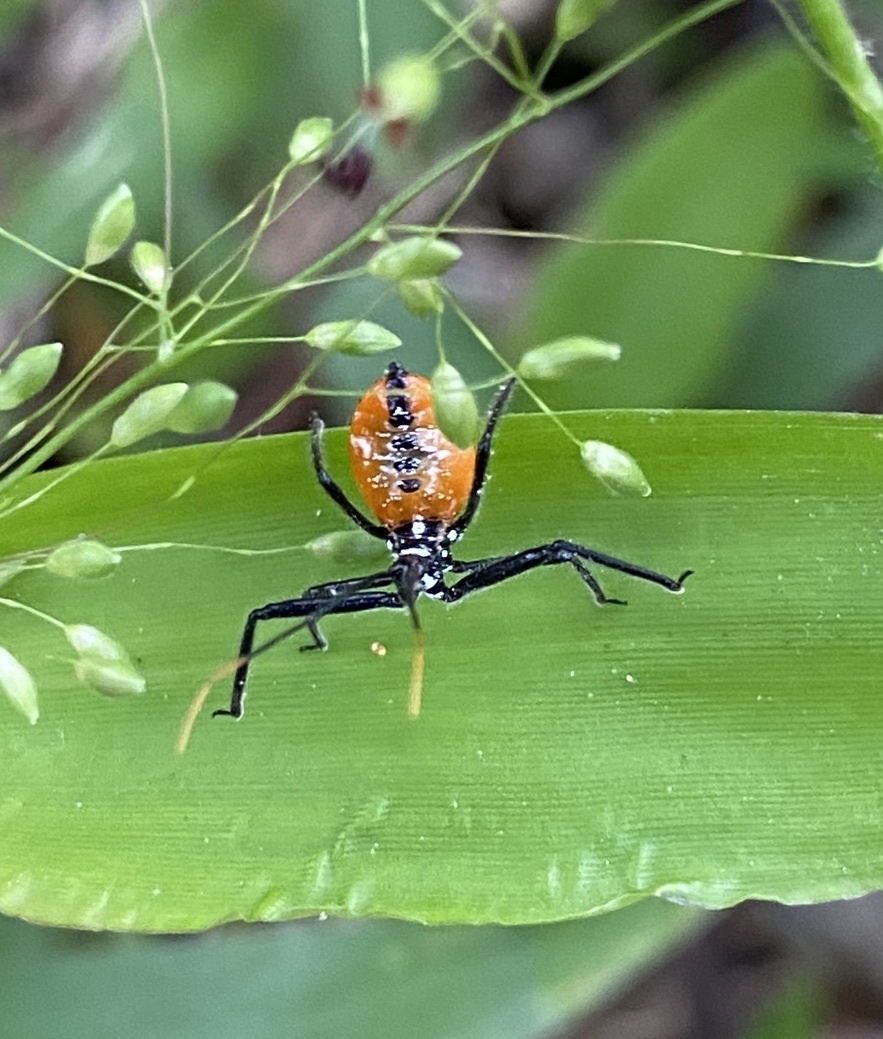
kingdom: Animalia
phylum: Arthropoda
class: Insecta
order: Hemiptera
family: Reduviidae
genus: Arilus
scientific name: Arilus cristatus
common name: North american wheel bug
